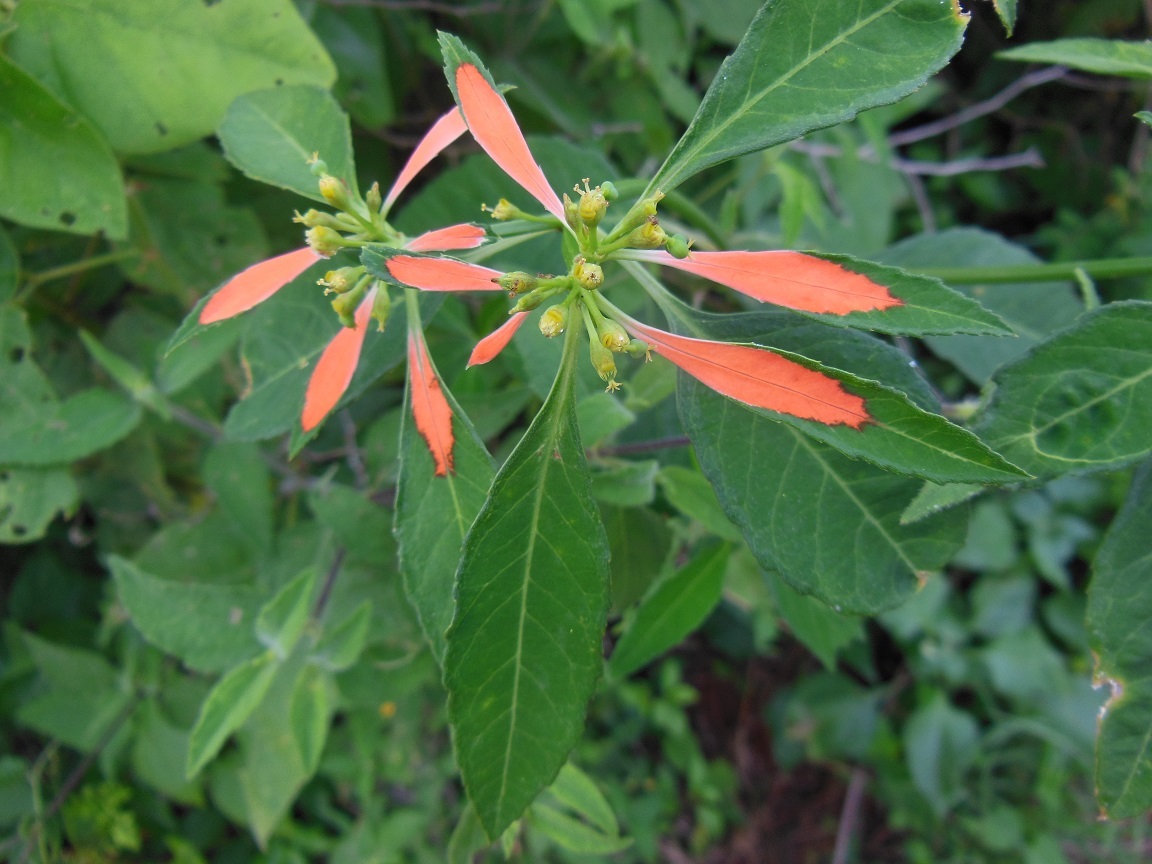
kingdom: Plantae
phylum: Tracheophyta
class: Magnoliopsida
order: Malpighiales
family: Euphorbiaceae
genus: Euphorbia
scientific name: Euphorbia heterophylla
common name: Mexican fireplant
